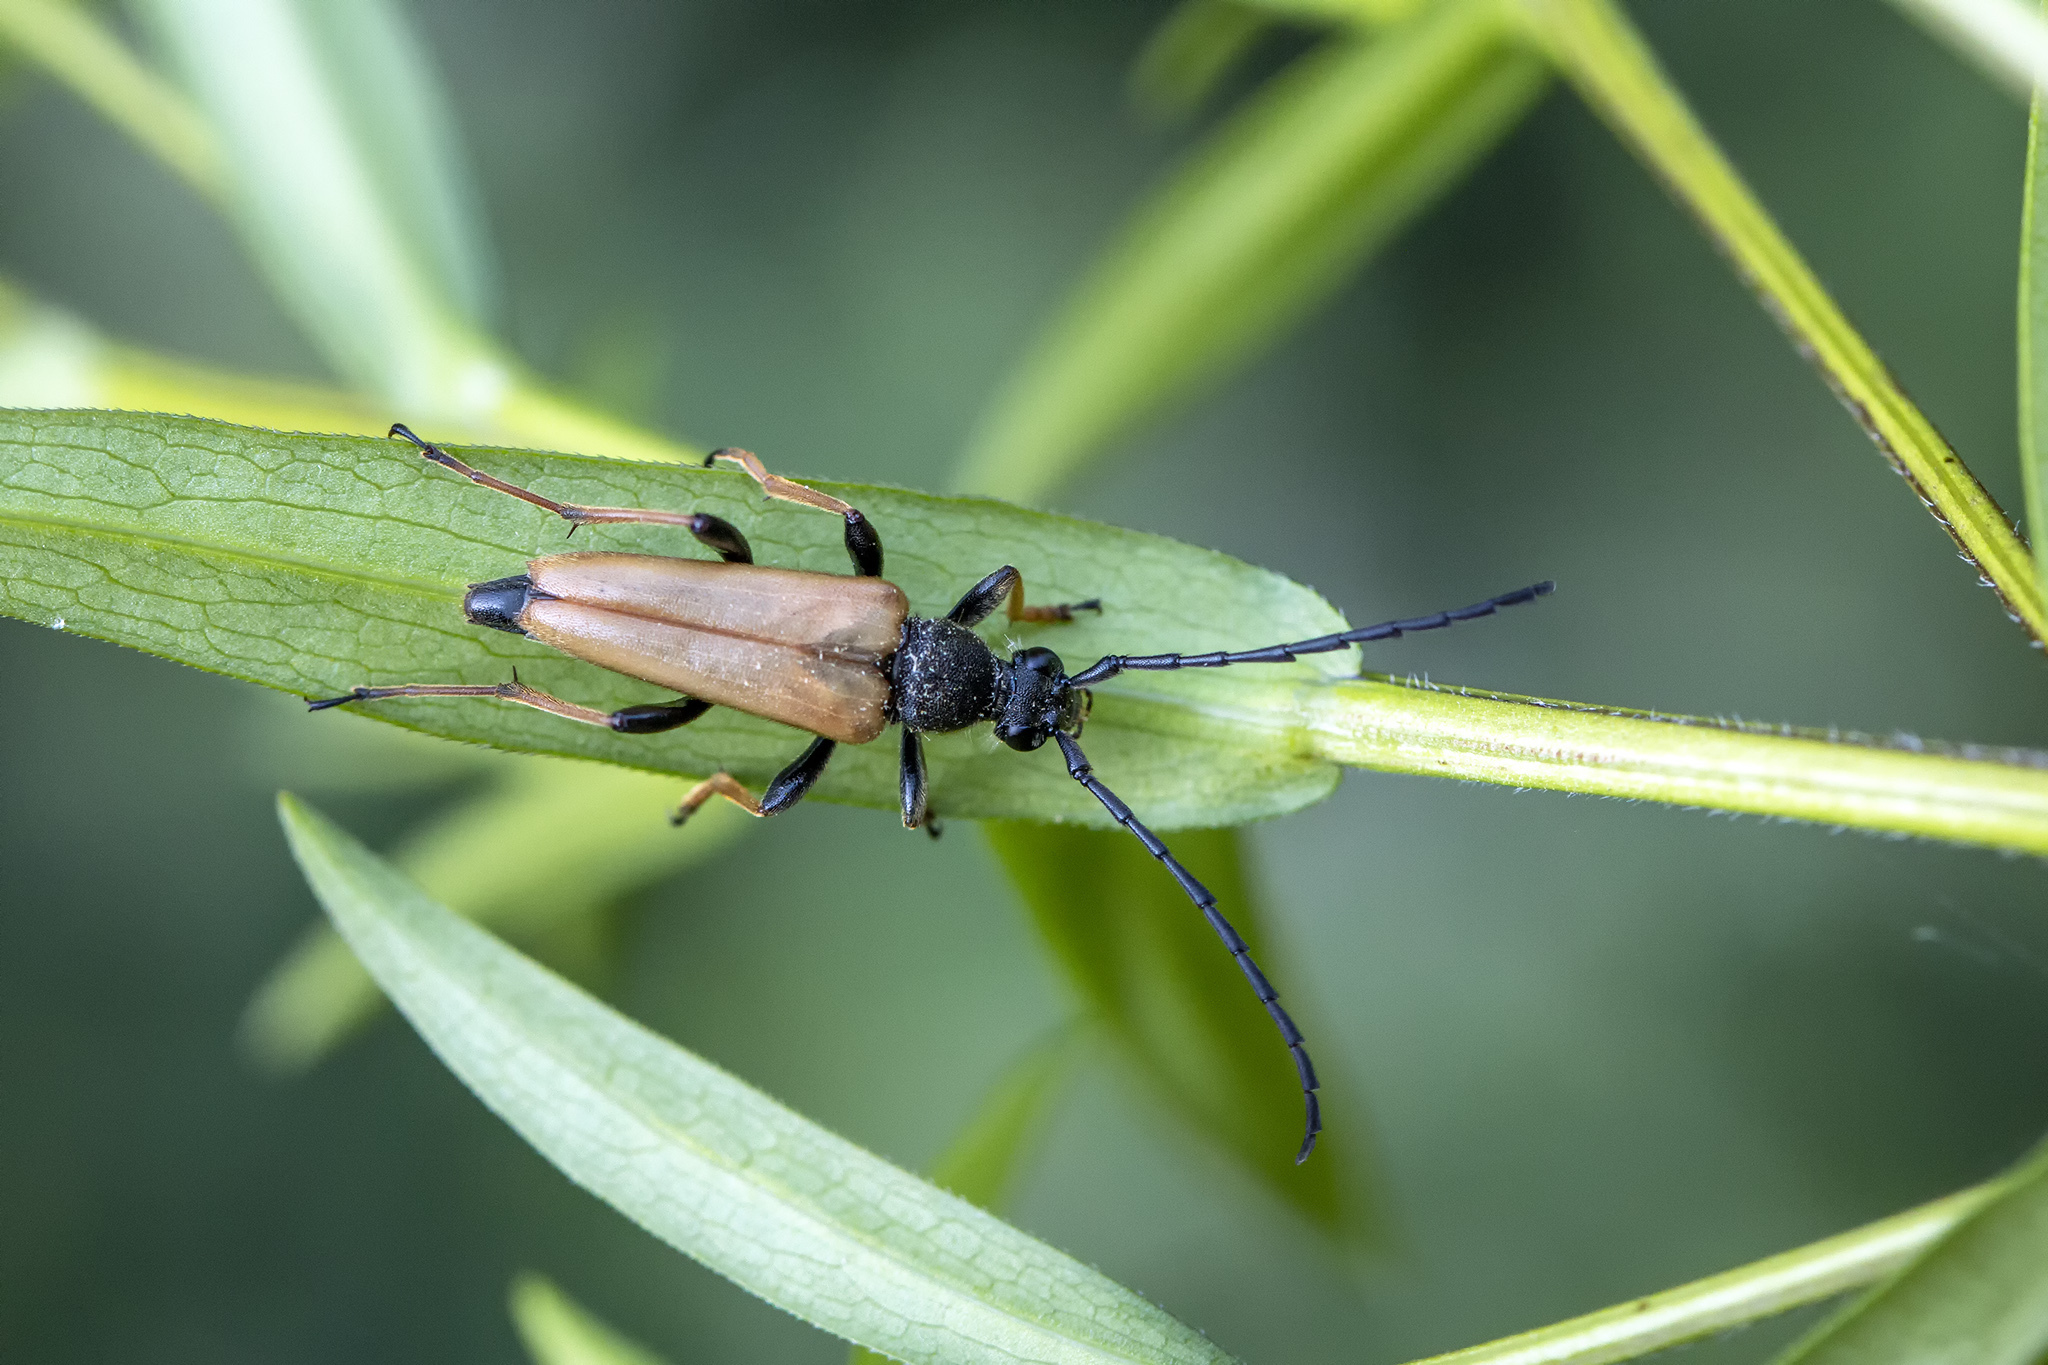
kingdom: Animalia
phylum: Arthropoda
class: Insecta
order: Coleoptera
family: Cerambycidae
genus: Stictoleptura
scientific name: Stictoleptura rubra
